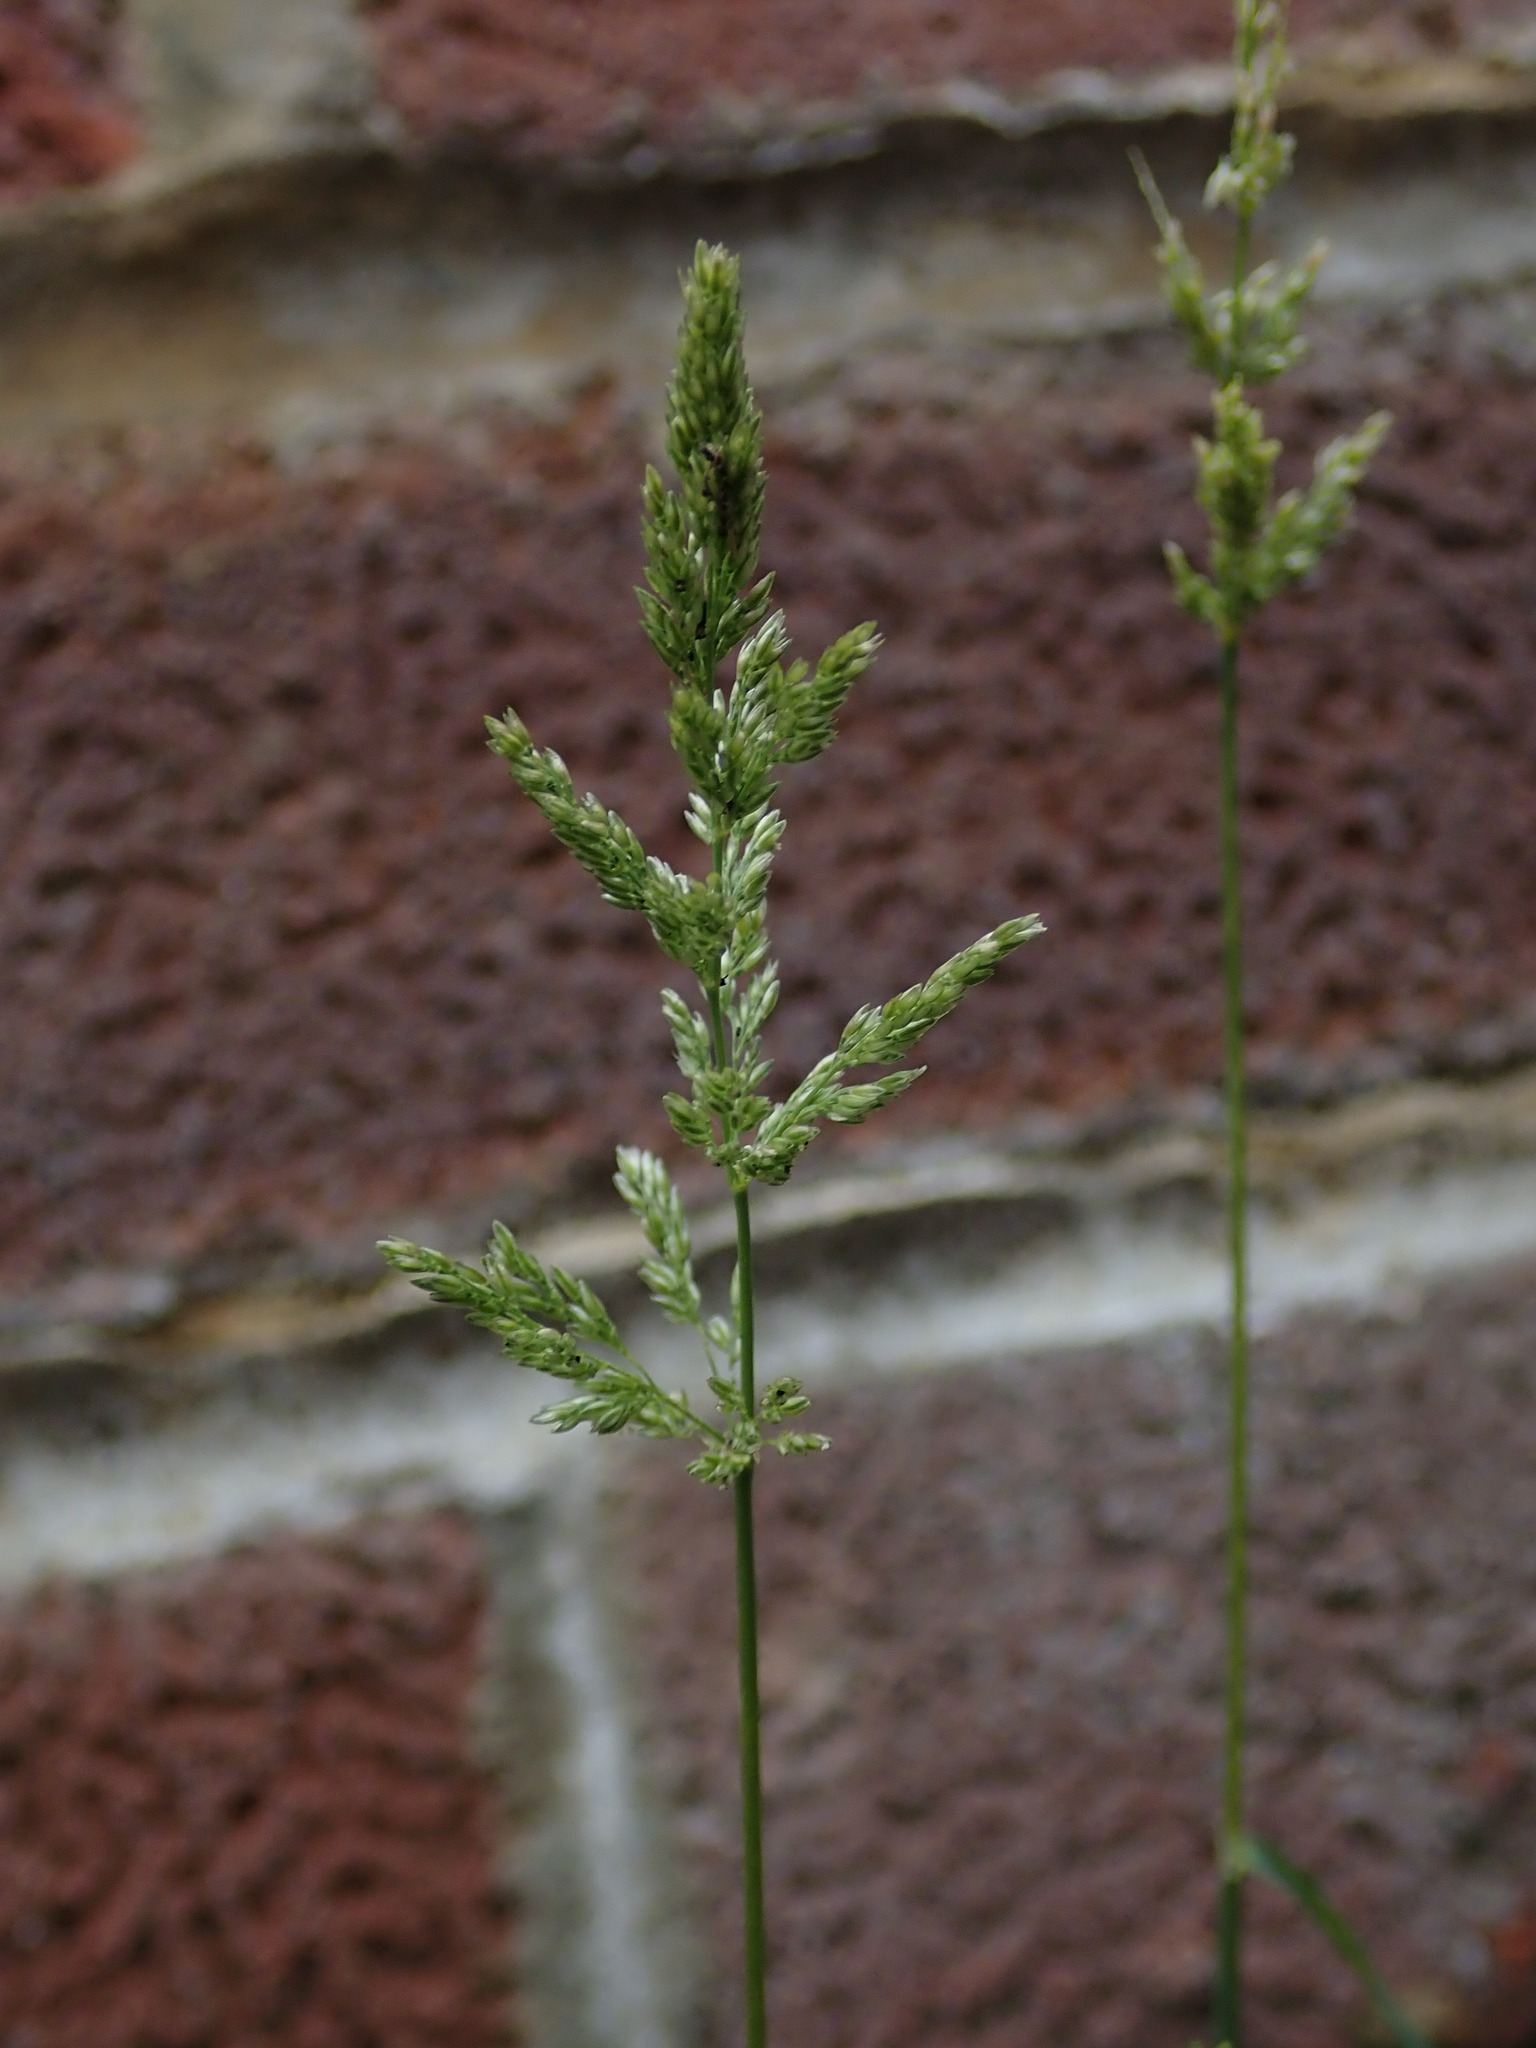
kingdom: Plantae
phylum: Tracheophyta
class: Liliopsida
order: Poales
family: Poaceae
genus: Polypogon
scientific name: Polypogon viridis
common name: Water bent
